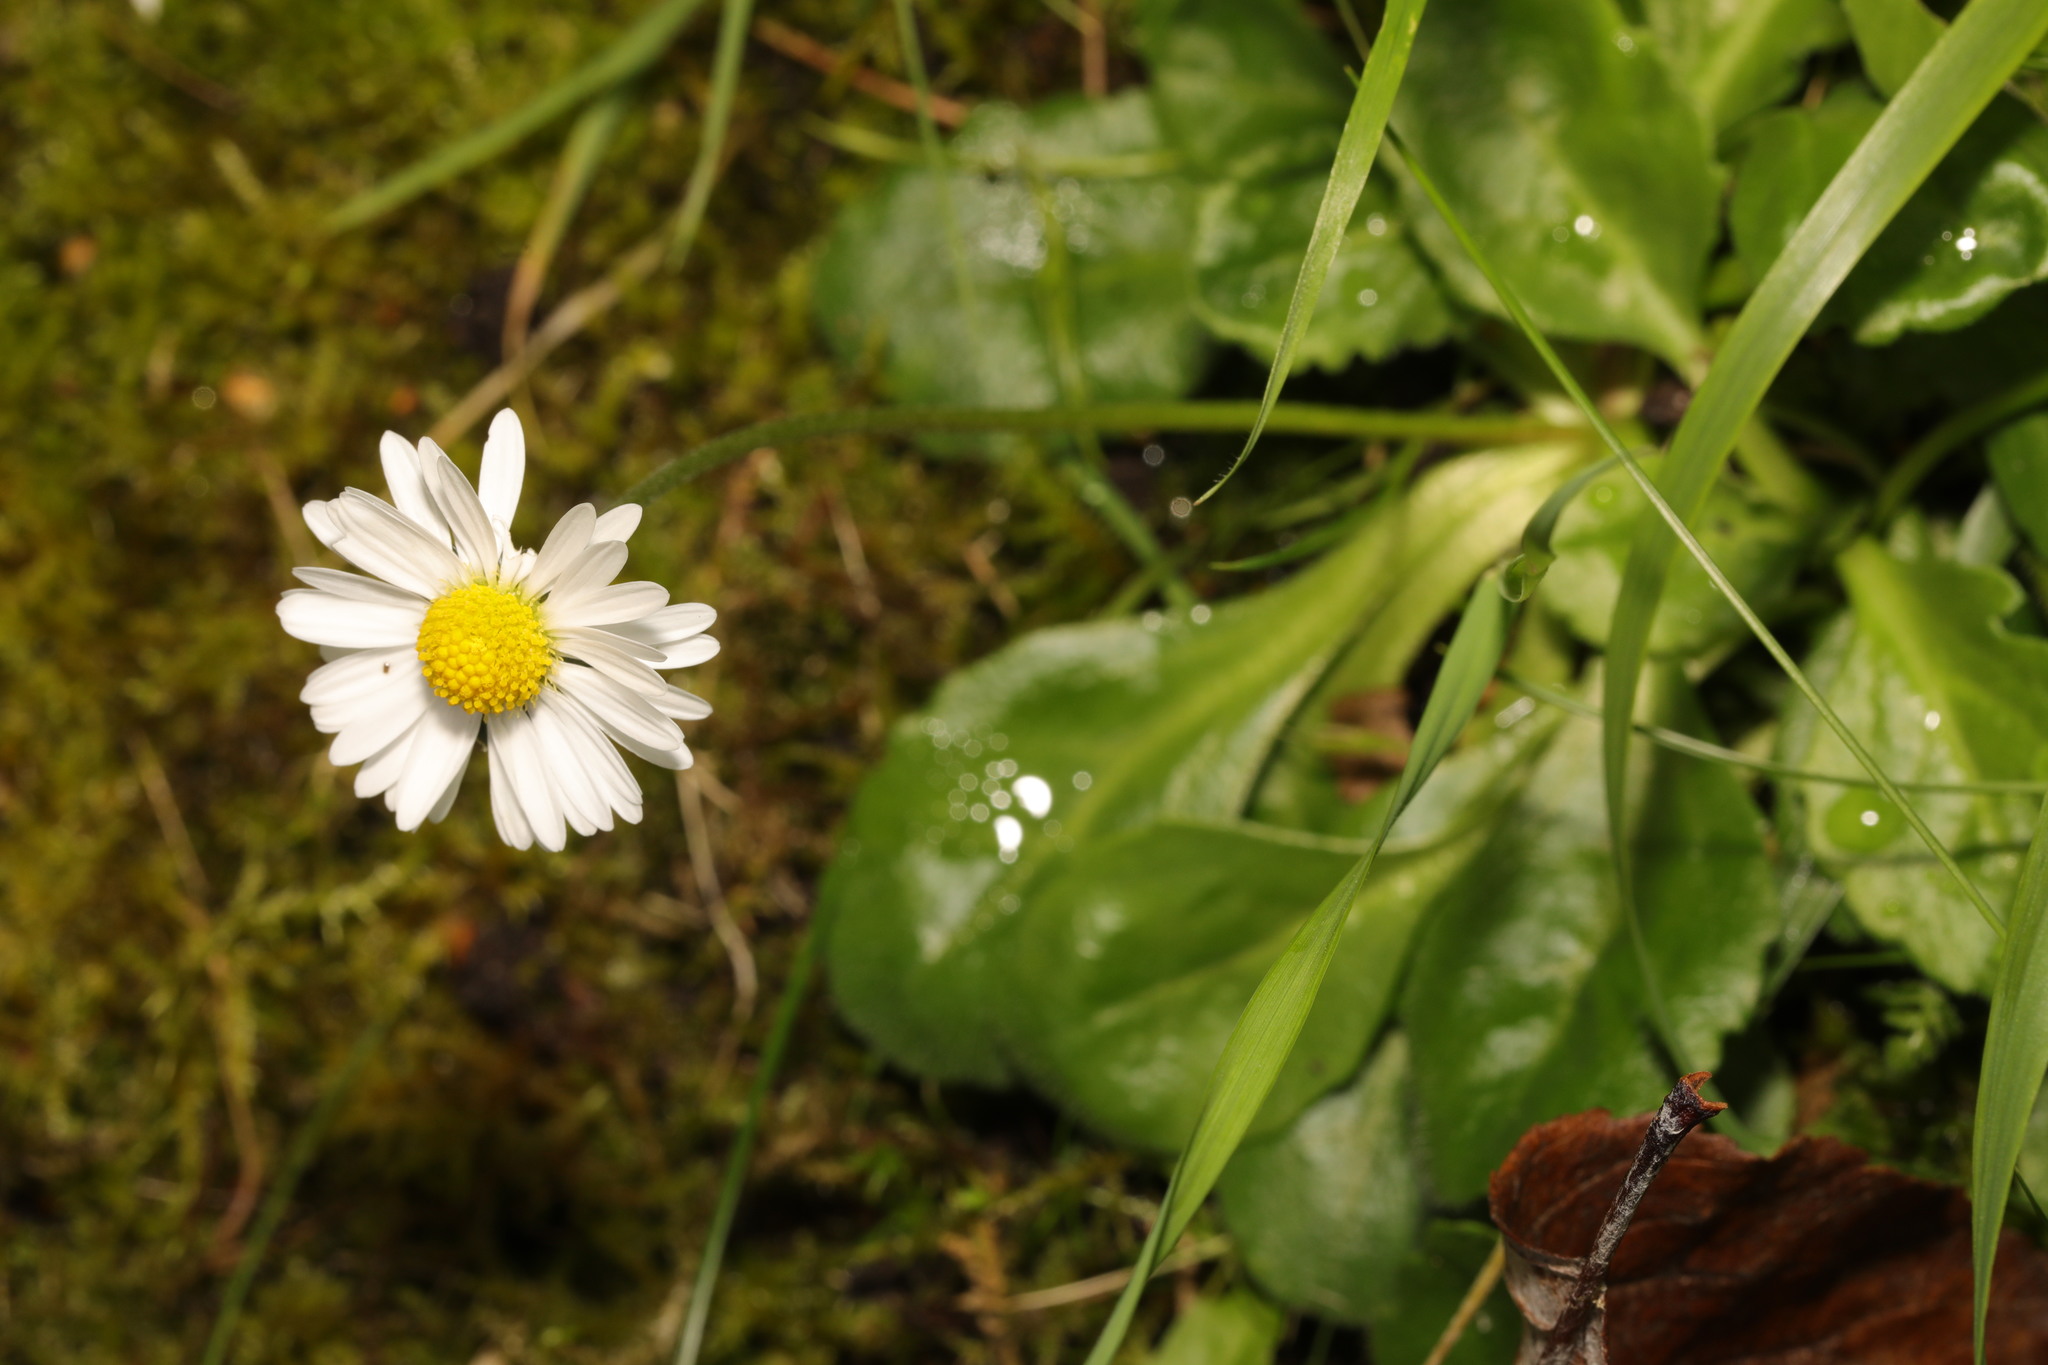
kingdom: Plantae
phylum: Tracheophyta
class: Magnoliopsida
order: Asterales
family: Asteraceae
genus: Bellis
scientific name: Bellis perennis
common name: Lawndaisy
